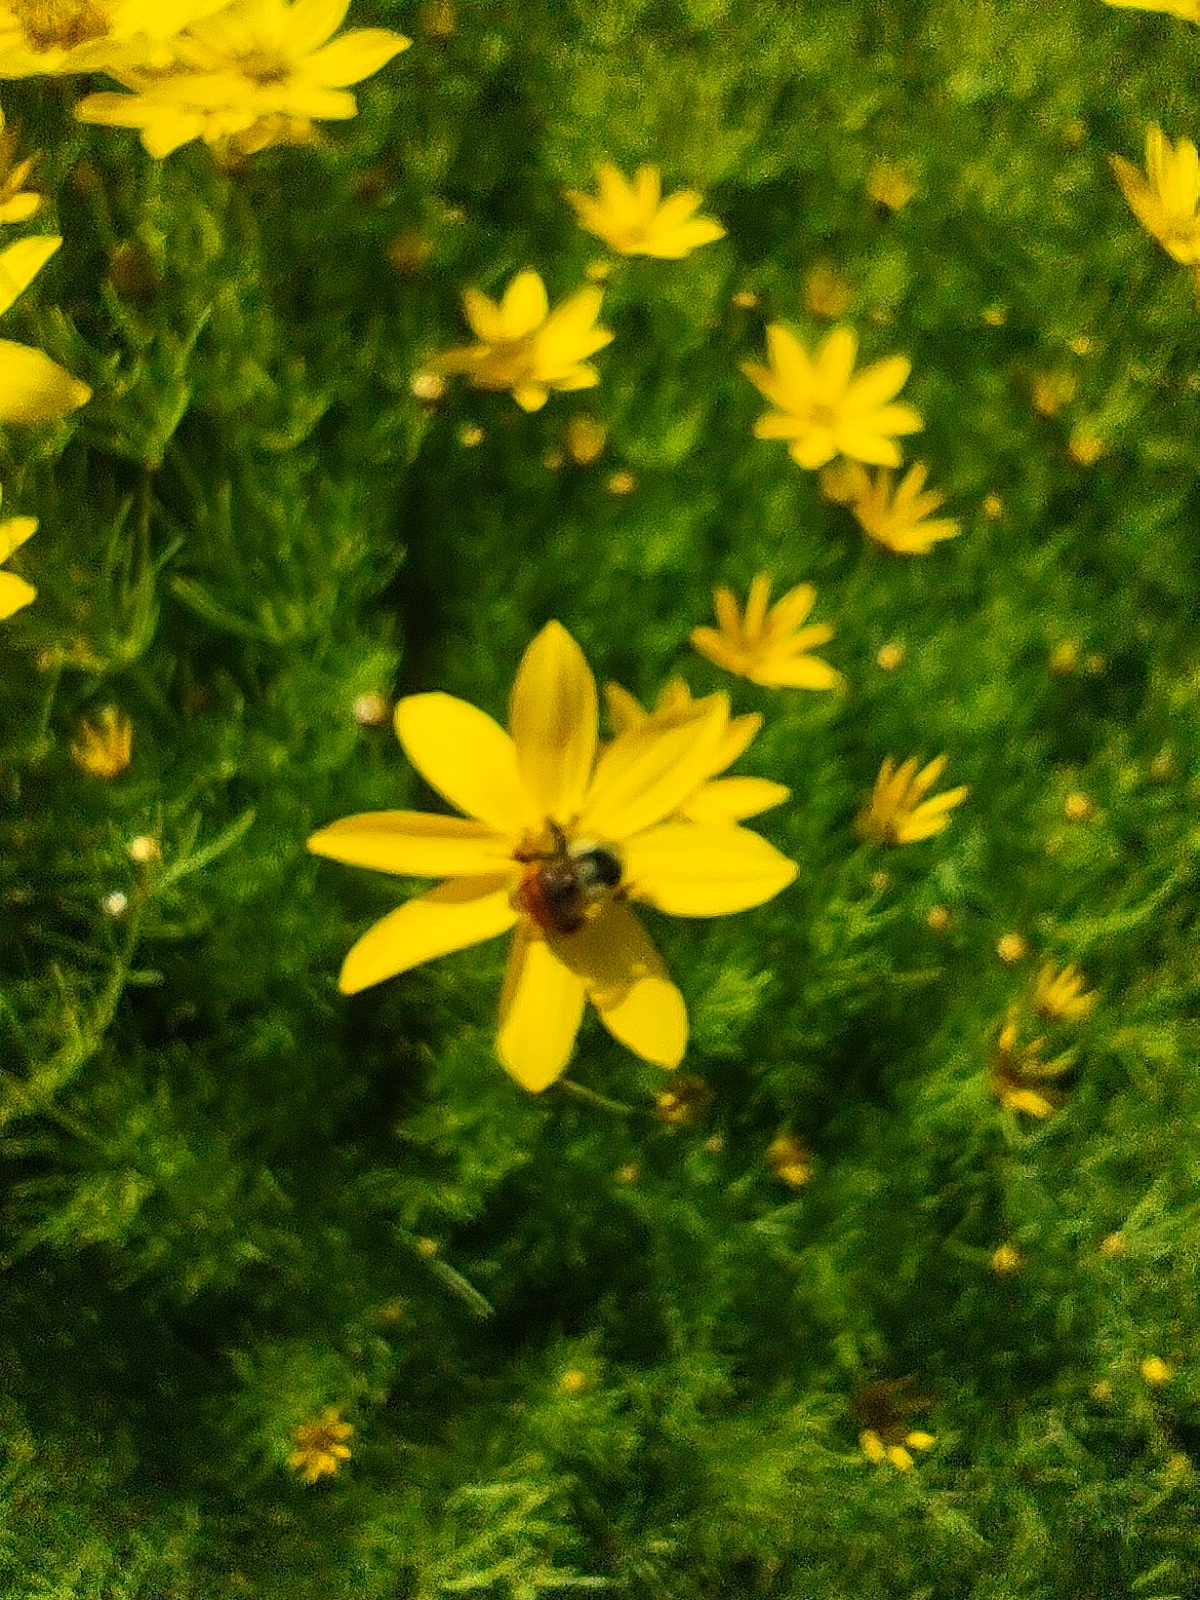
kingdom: Animalia
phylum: Arthropoda
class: Insecta
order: Hymenoptera
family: Apidae
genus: Bombus
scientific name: Bombus ternarius
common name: Tri-colored bumble bee
